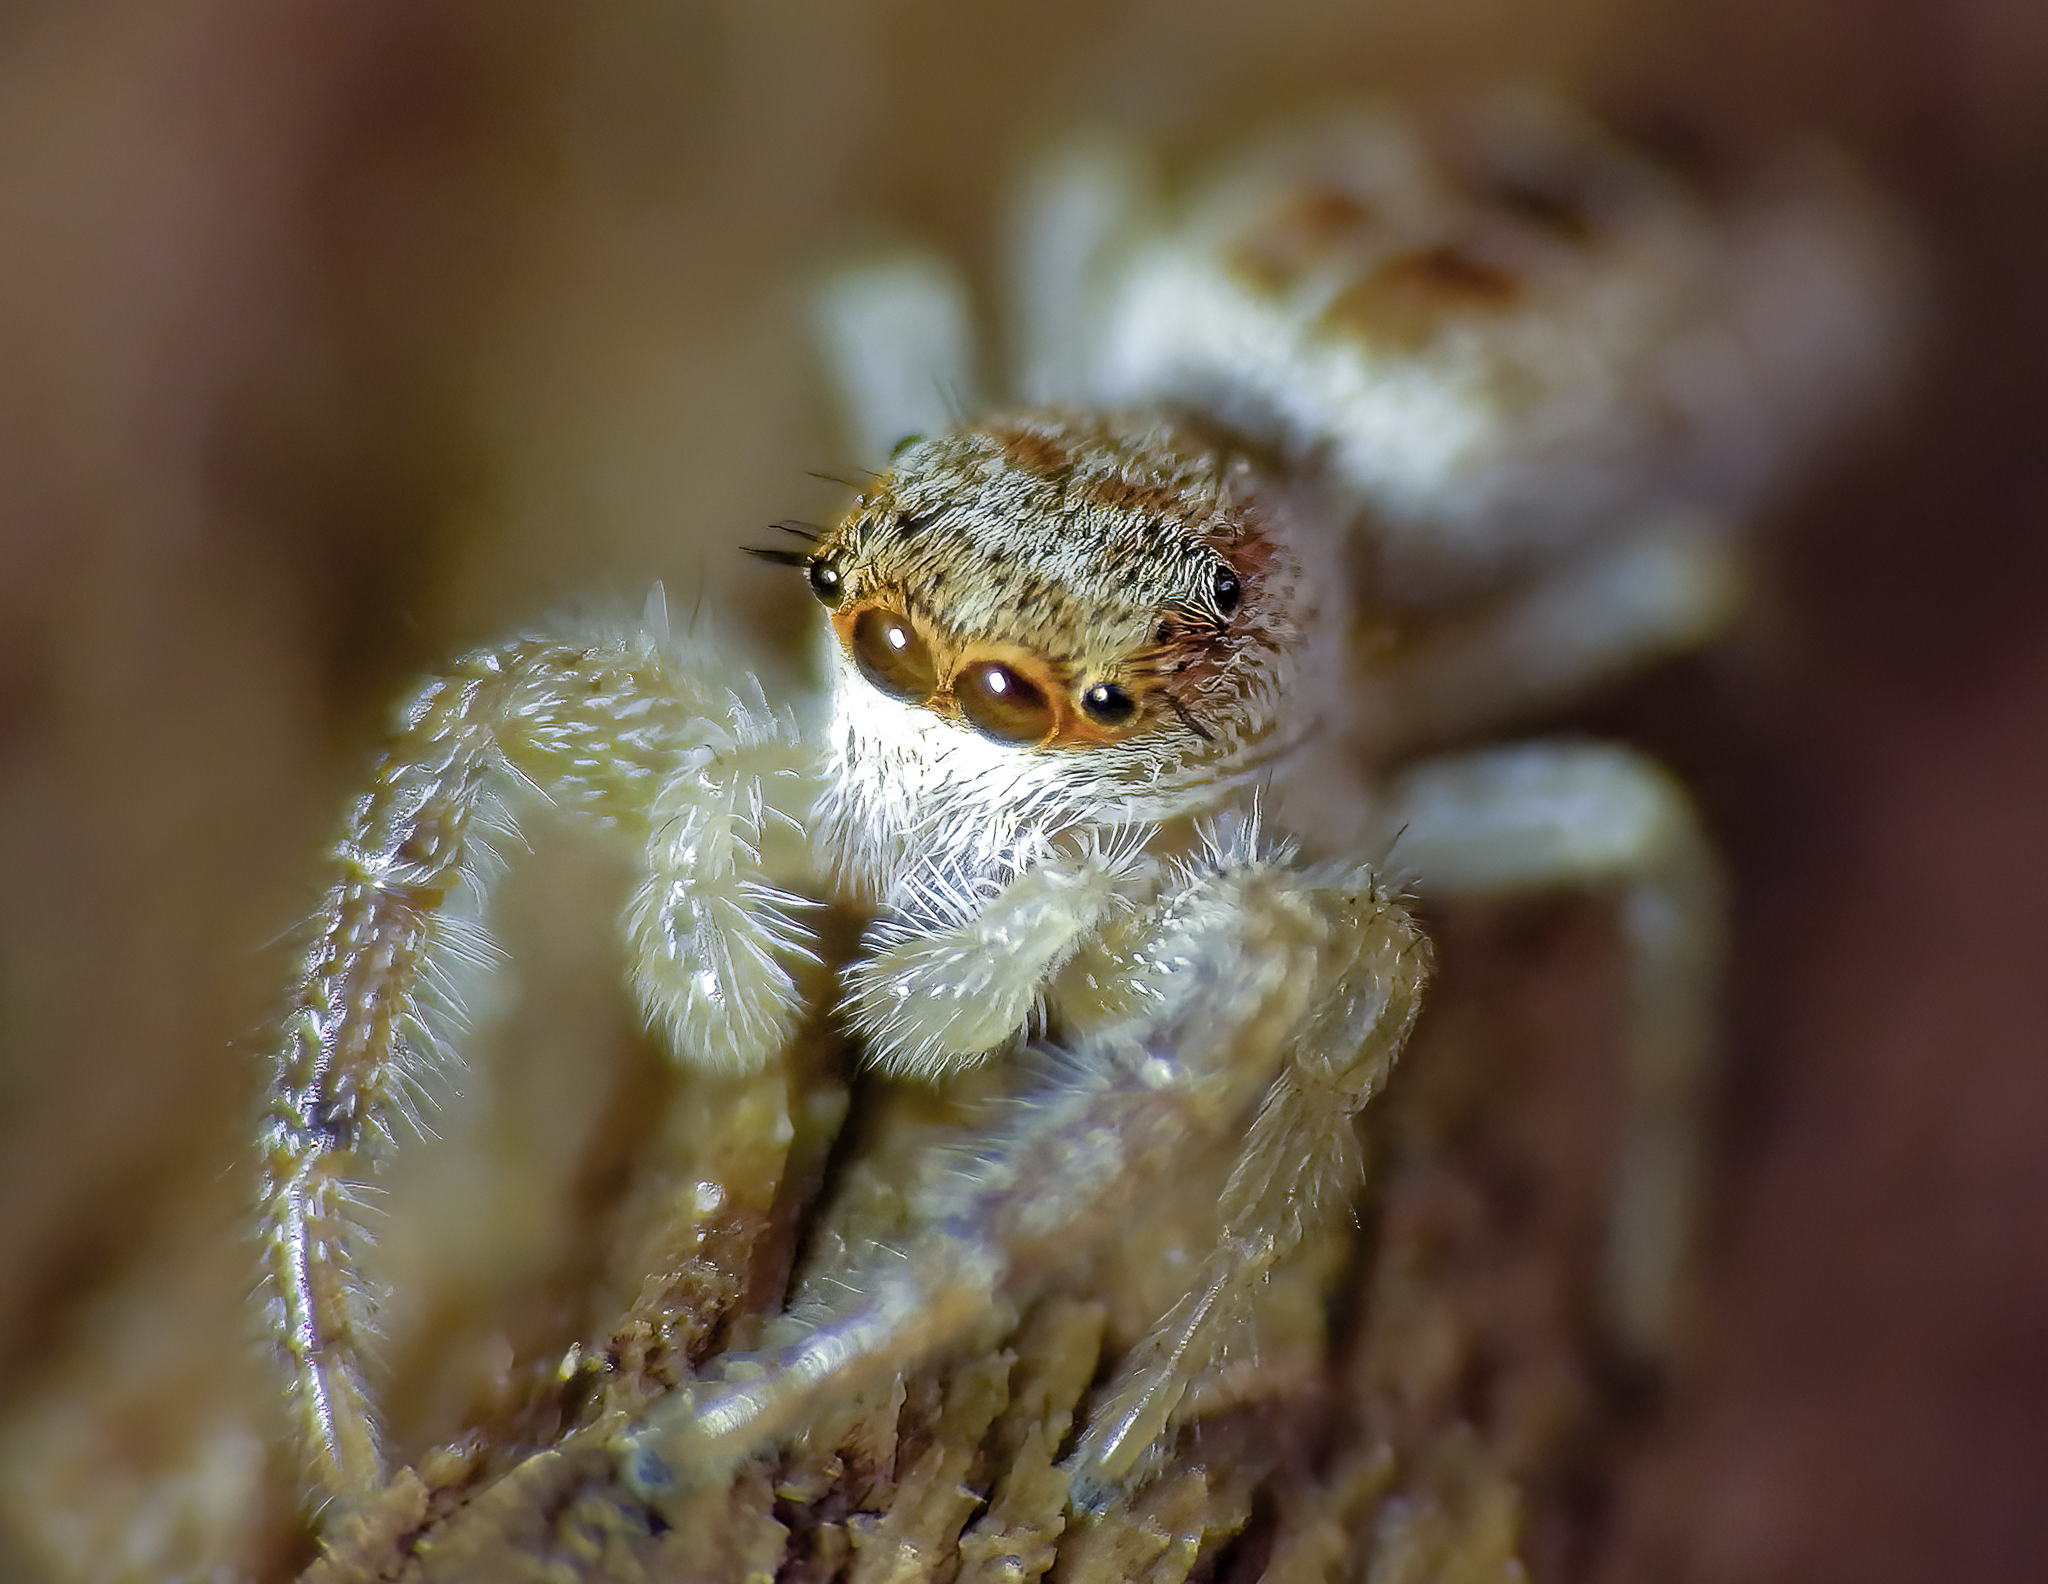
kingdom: Animalia
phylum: Arthropoda
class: Arachnida
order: Araneae
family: Salticidae
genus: Hentzia
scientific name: Hentzia mitrata
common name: White-jawed jumping spider
